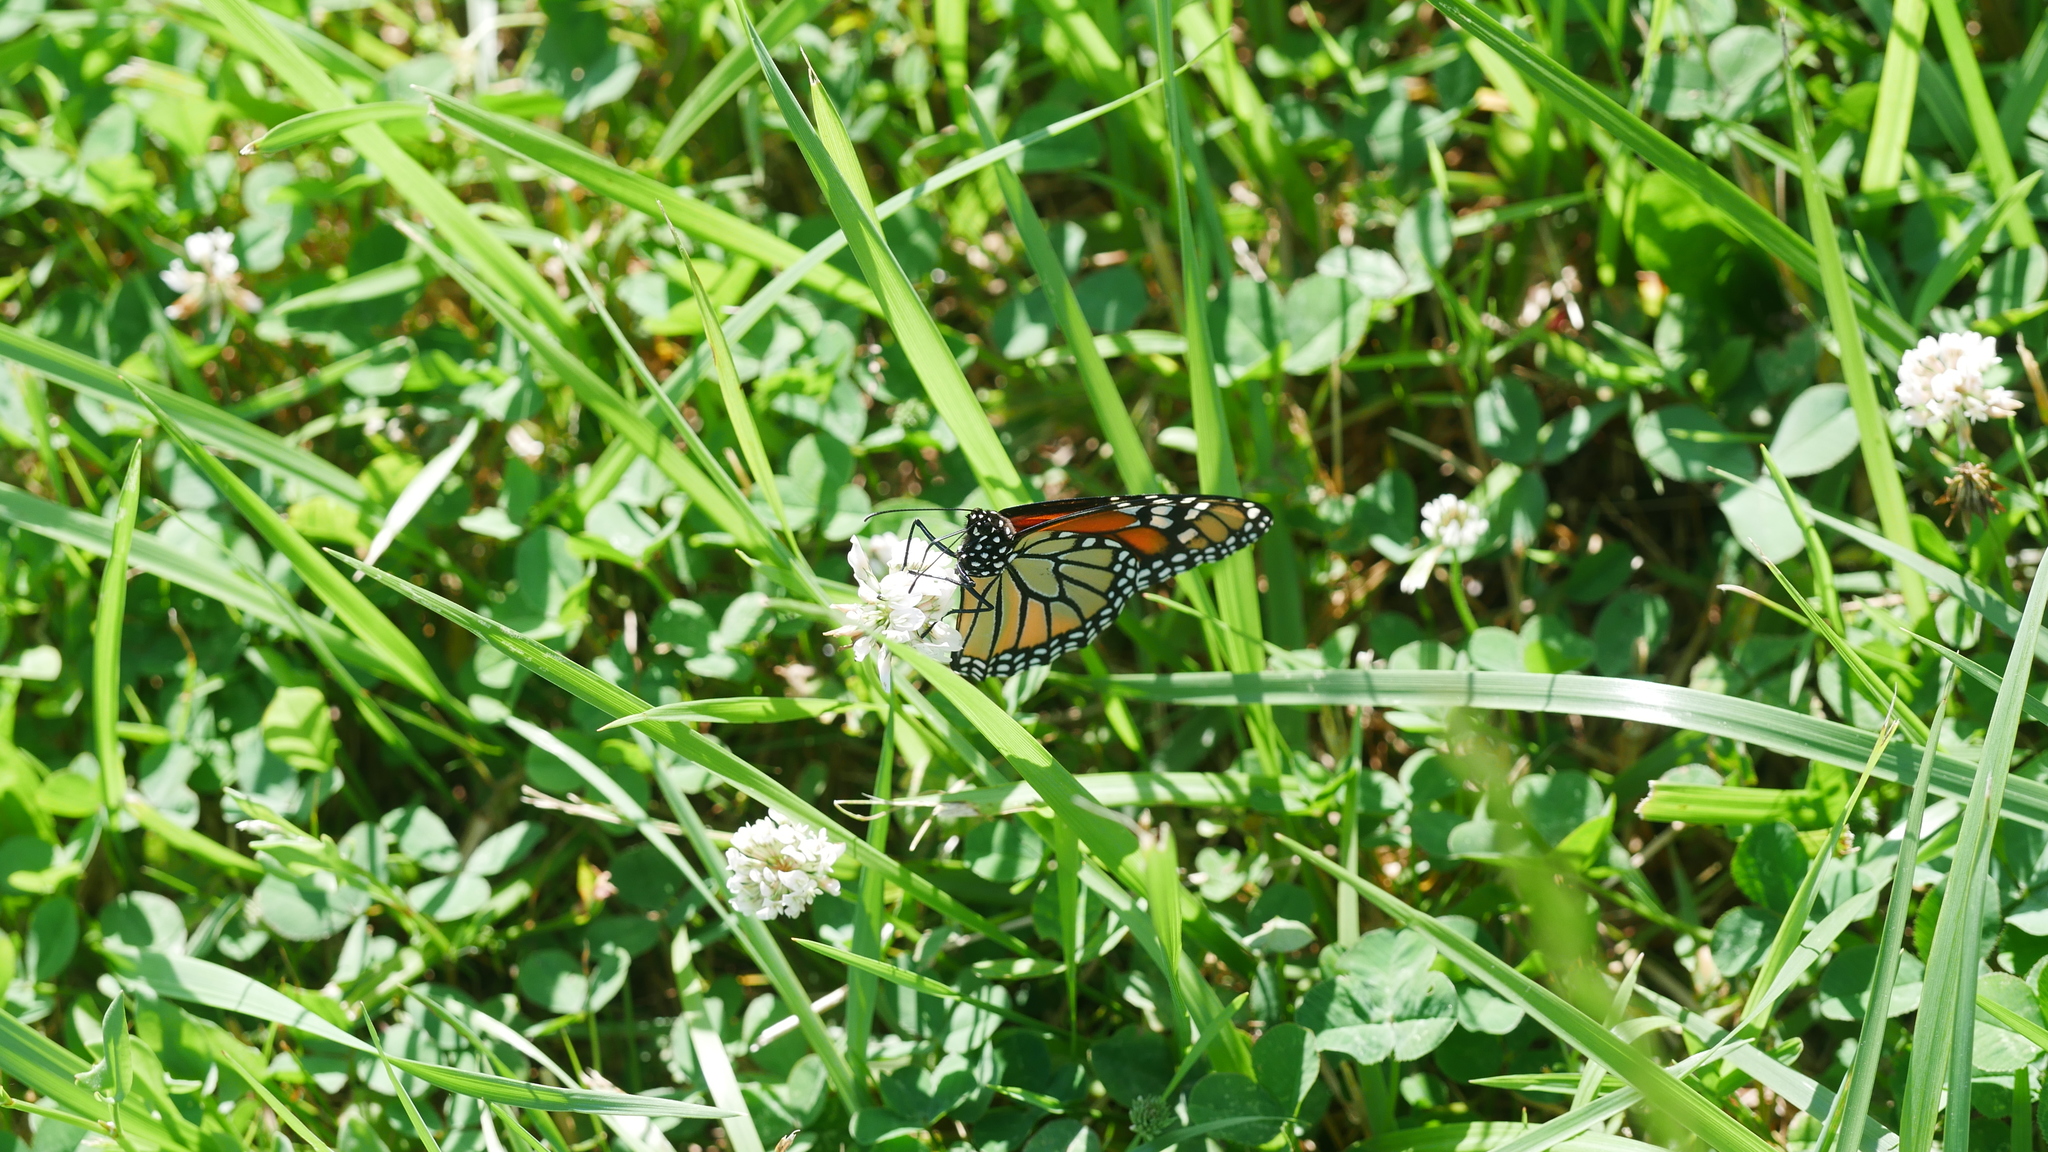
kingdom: Animalia
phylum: Arthropoda
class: Insecta
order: Lepidoptera
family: Nymphalidae
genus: Danaus
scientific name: Danaus plexippus
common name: Monarch
